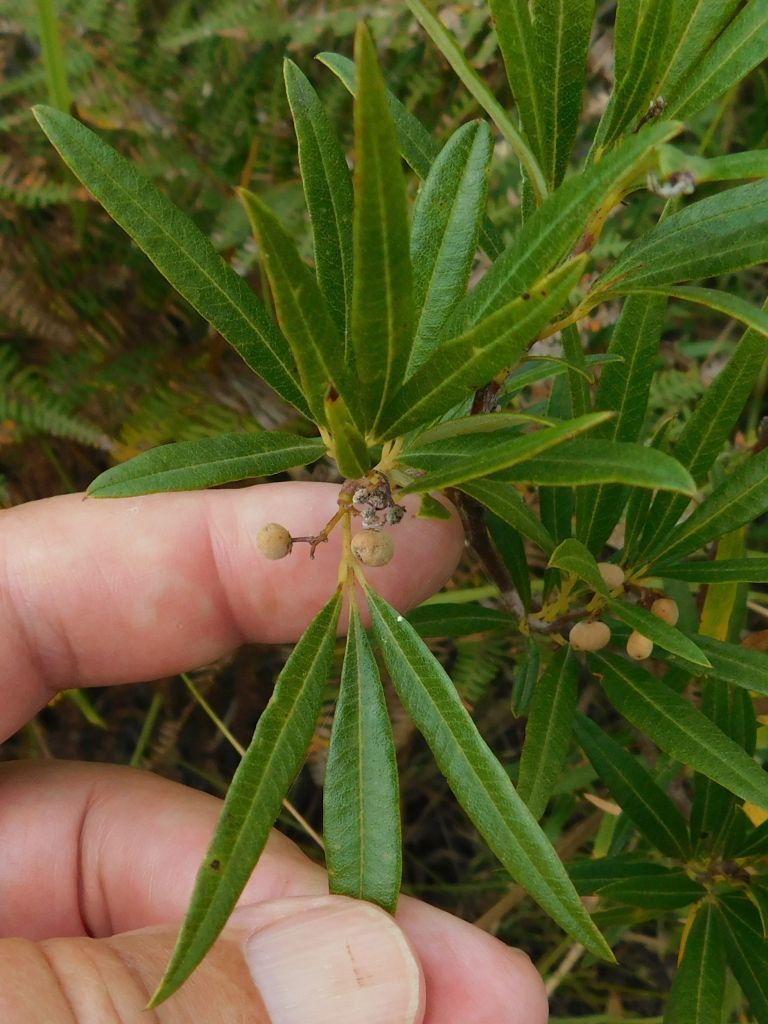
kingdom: Plantae
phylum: Tracheophyta
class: Magnoliopsida
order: Sapindales
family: Anacardiaceae
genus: Searsia
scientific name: Searsia angustifolia
